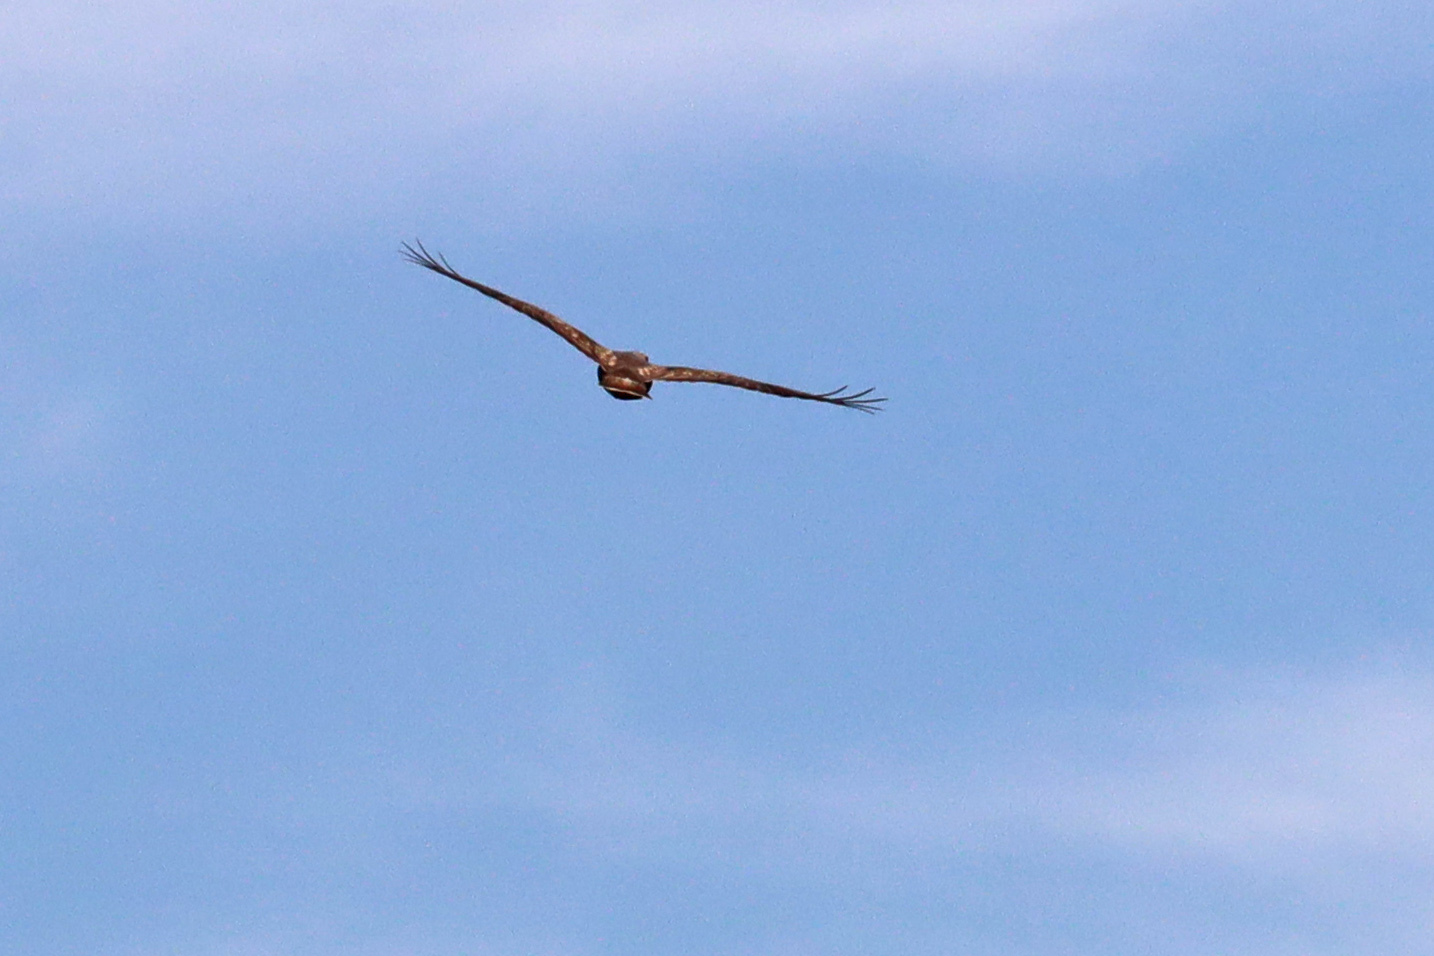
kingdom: Animalia
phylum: Chordata
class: Aves
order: Accipitriformes
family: Accipitridae
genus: Buteo
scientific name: Buteo buteo
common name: Common buzzard
